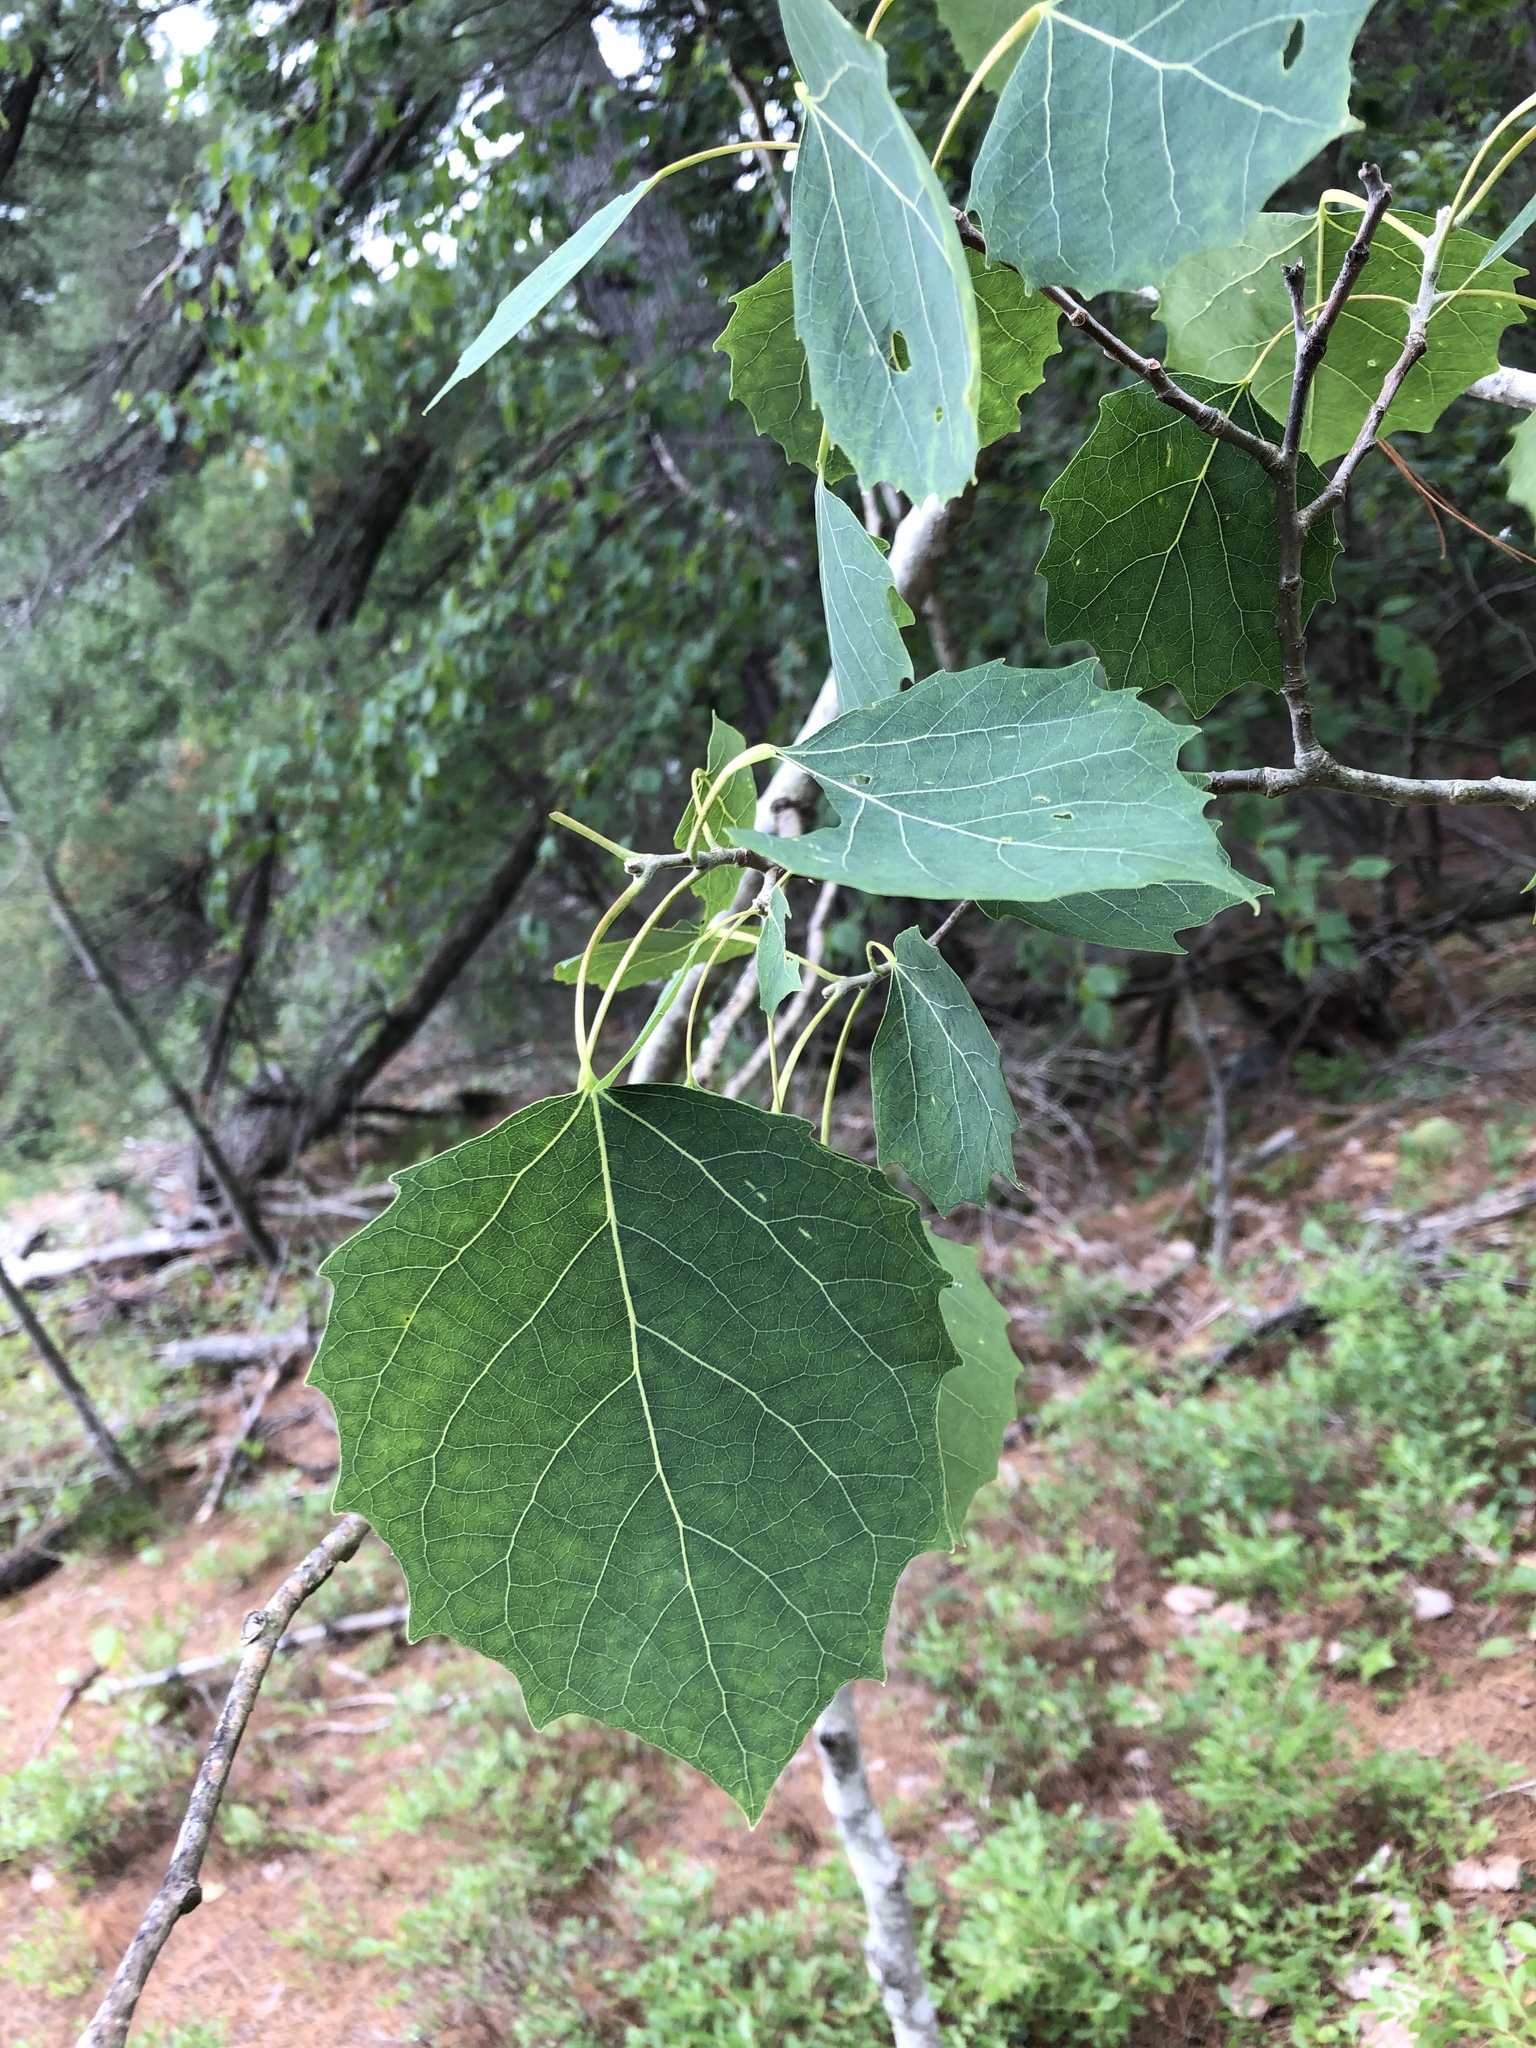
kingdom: Plantae
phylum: Tracheophyta
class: Magnoliopsida
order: Malpighiales
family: Salicaceae
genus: Populus
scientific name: Populus grandidentata
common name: Bigtooth aspen
